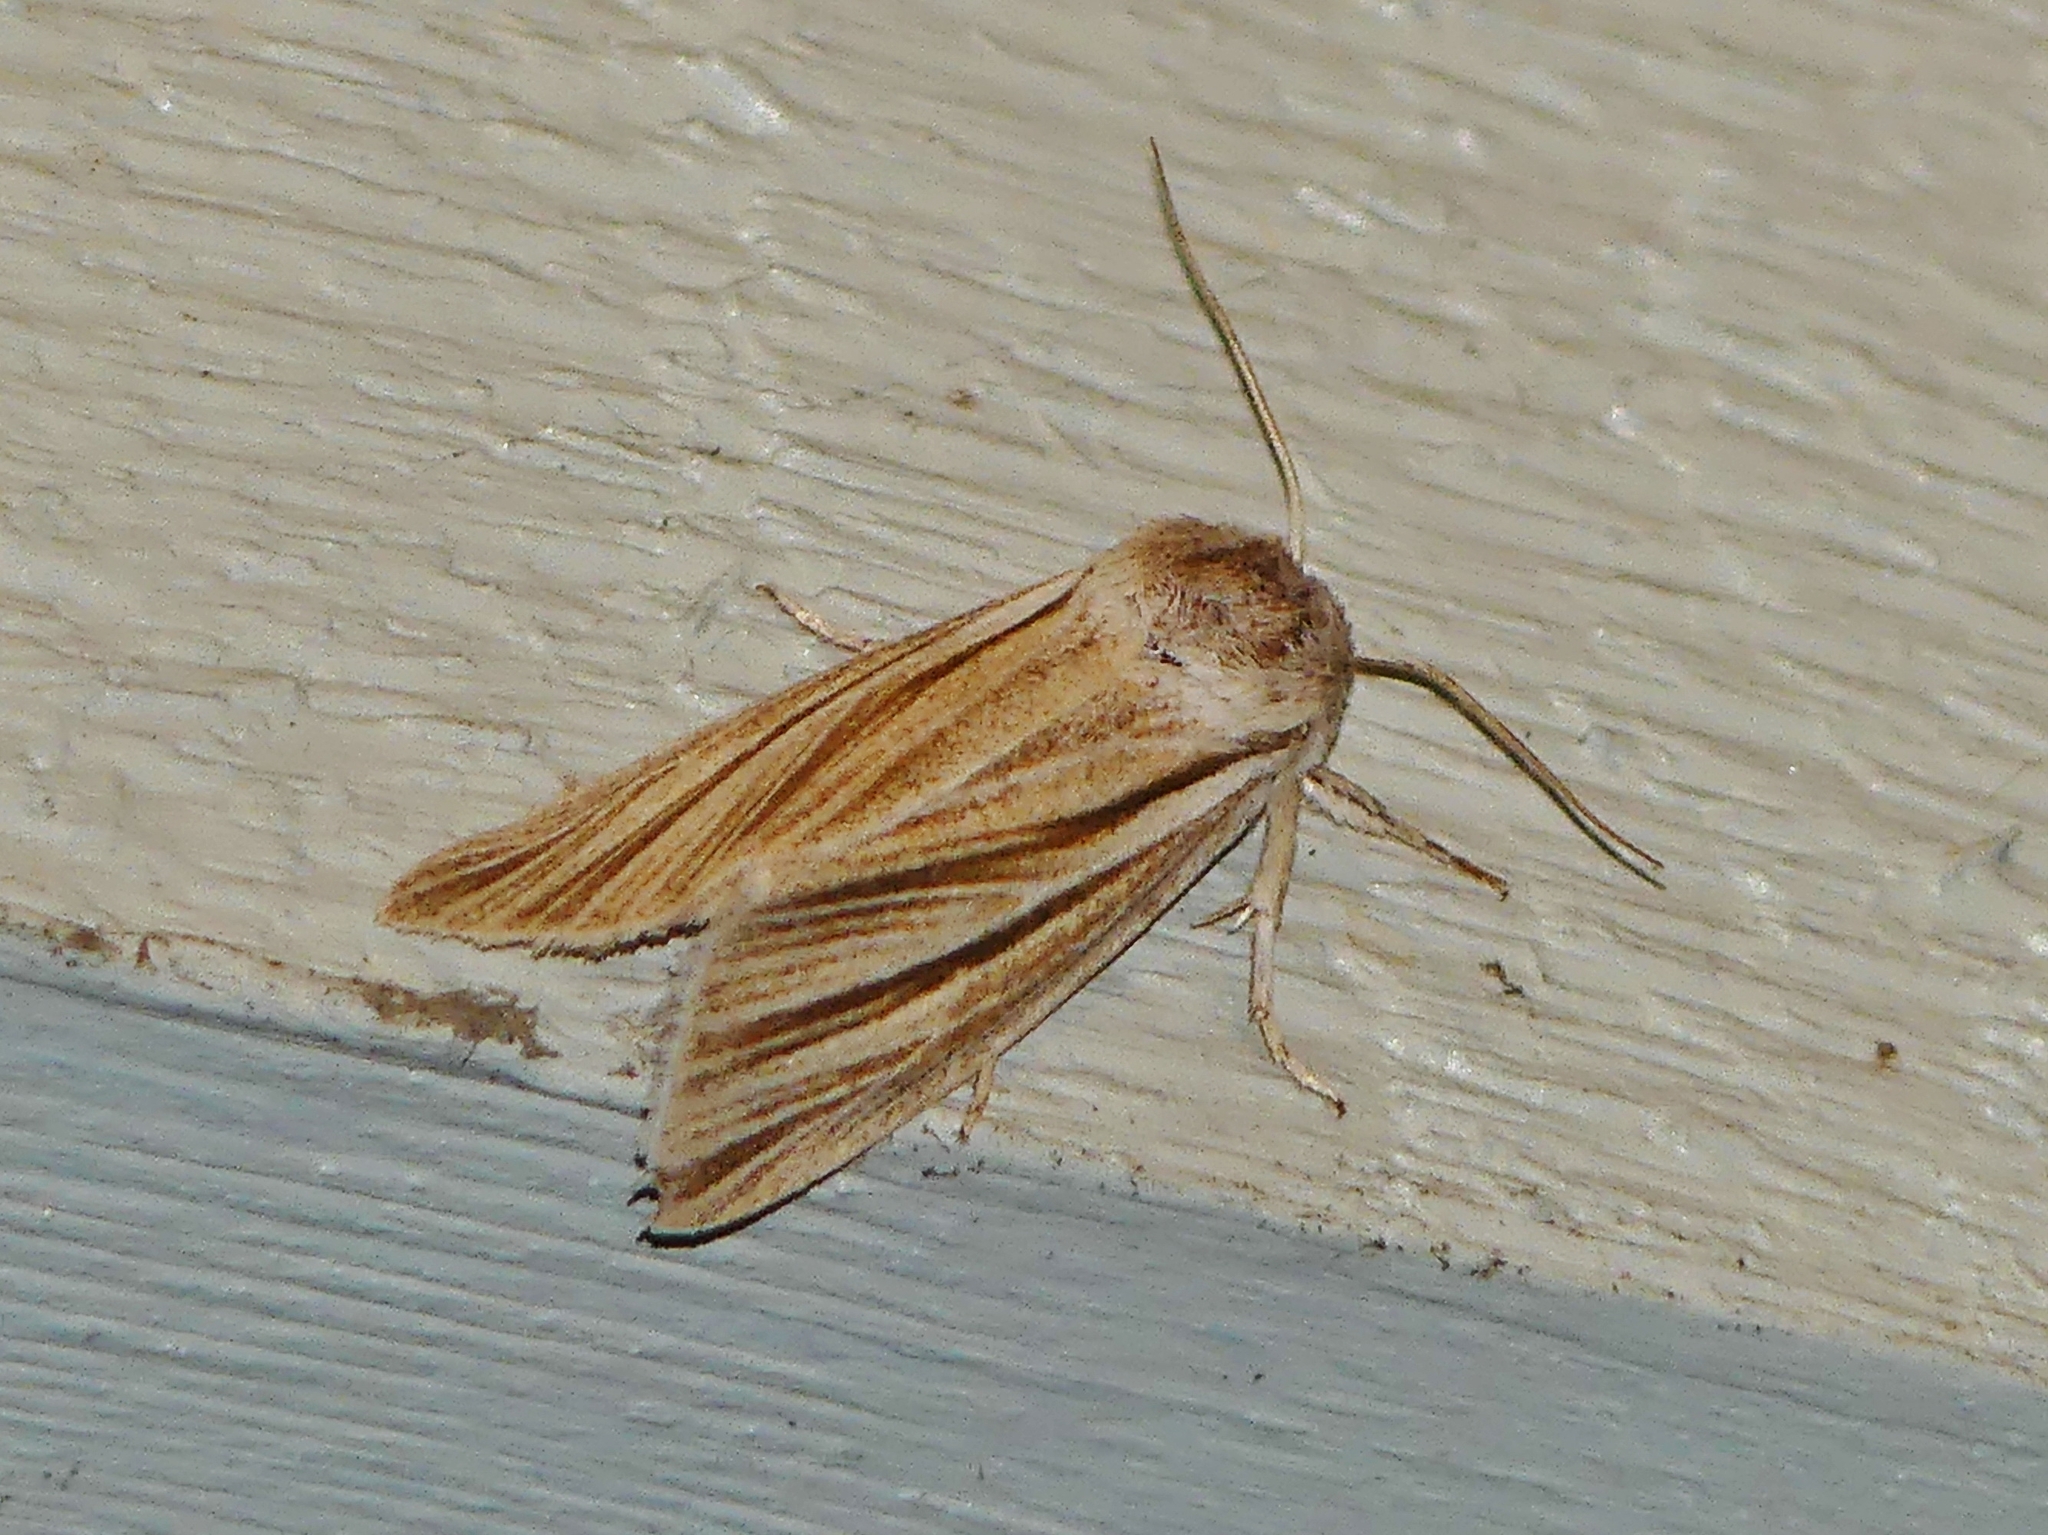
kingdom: Animalia
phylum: Arthropoda
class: Insecta
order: Lepidoptera
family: Noctuidae
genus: Acronicta
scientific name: Acronicta insularis
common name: Henry's marsh moth
